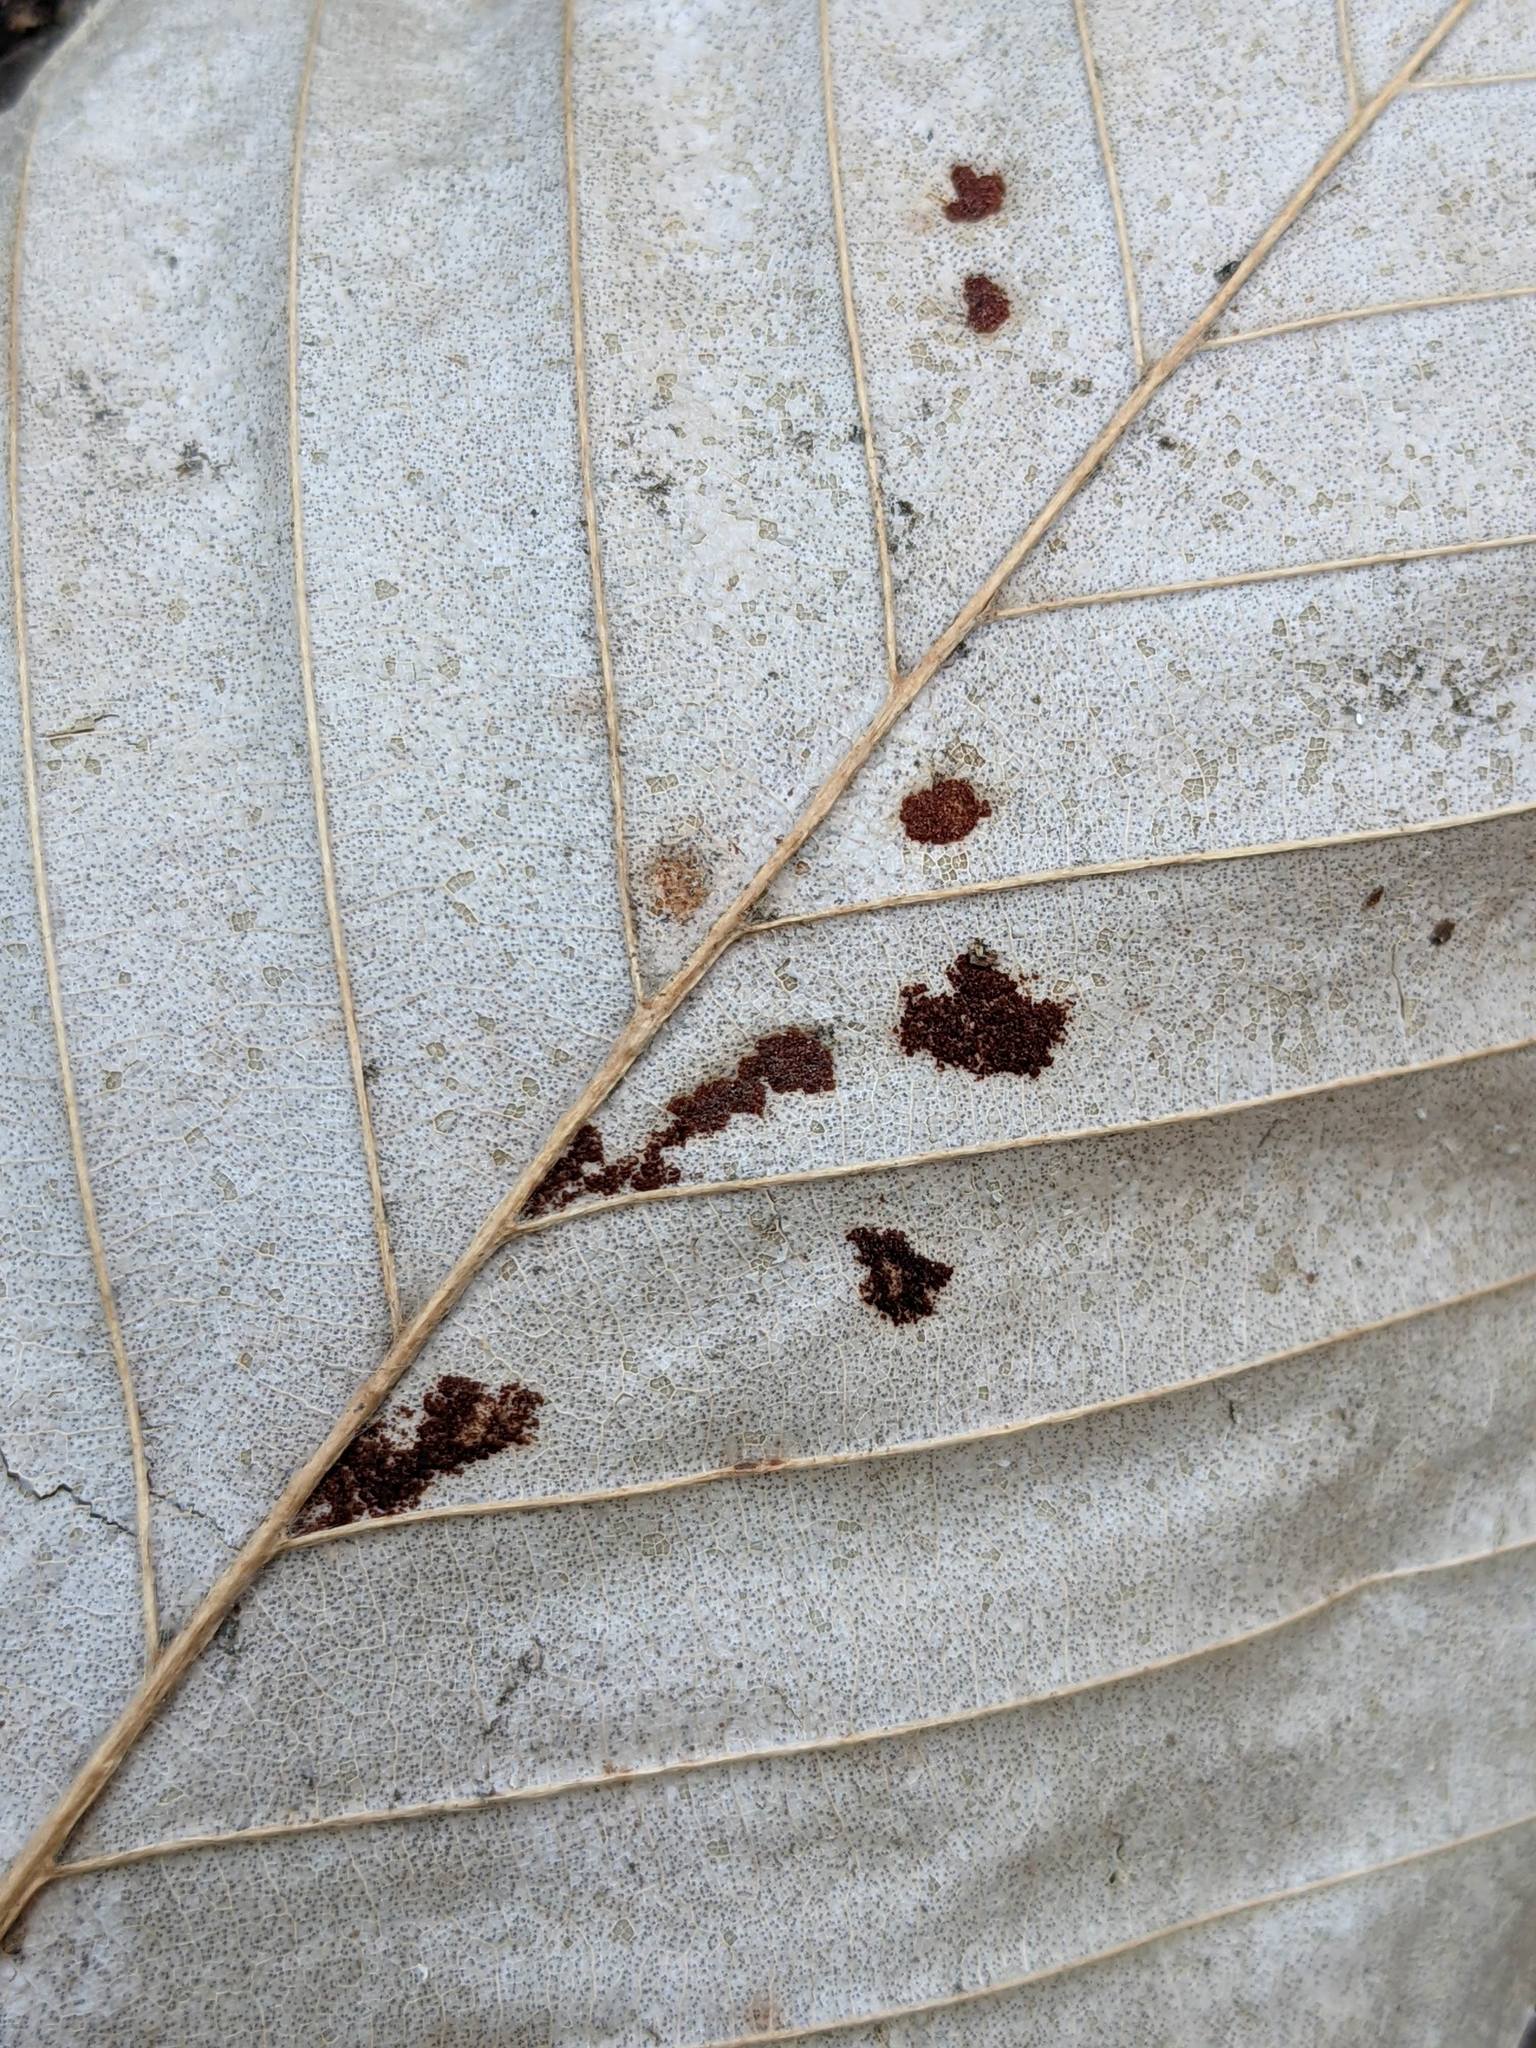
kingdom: Animalia
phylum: Arthropoda
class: Arachnida
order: Trombidiformes
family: Eriophyidae
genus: Acalitus
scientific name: Acalitus
